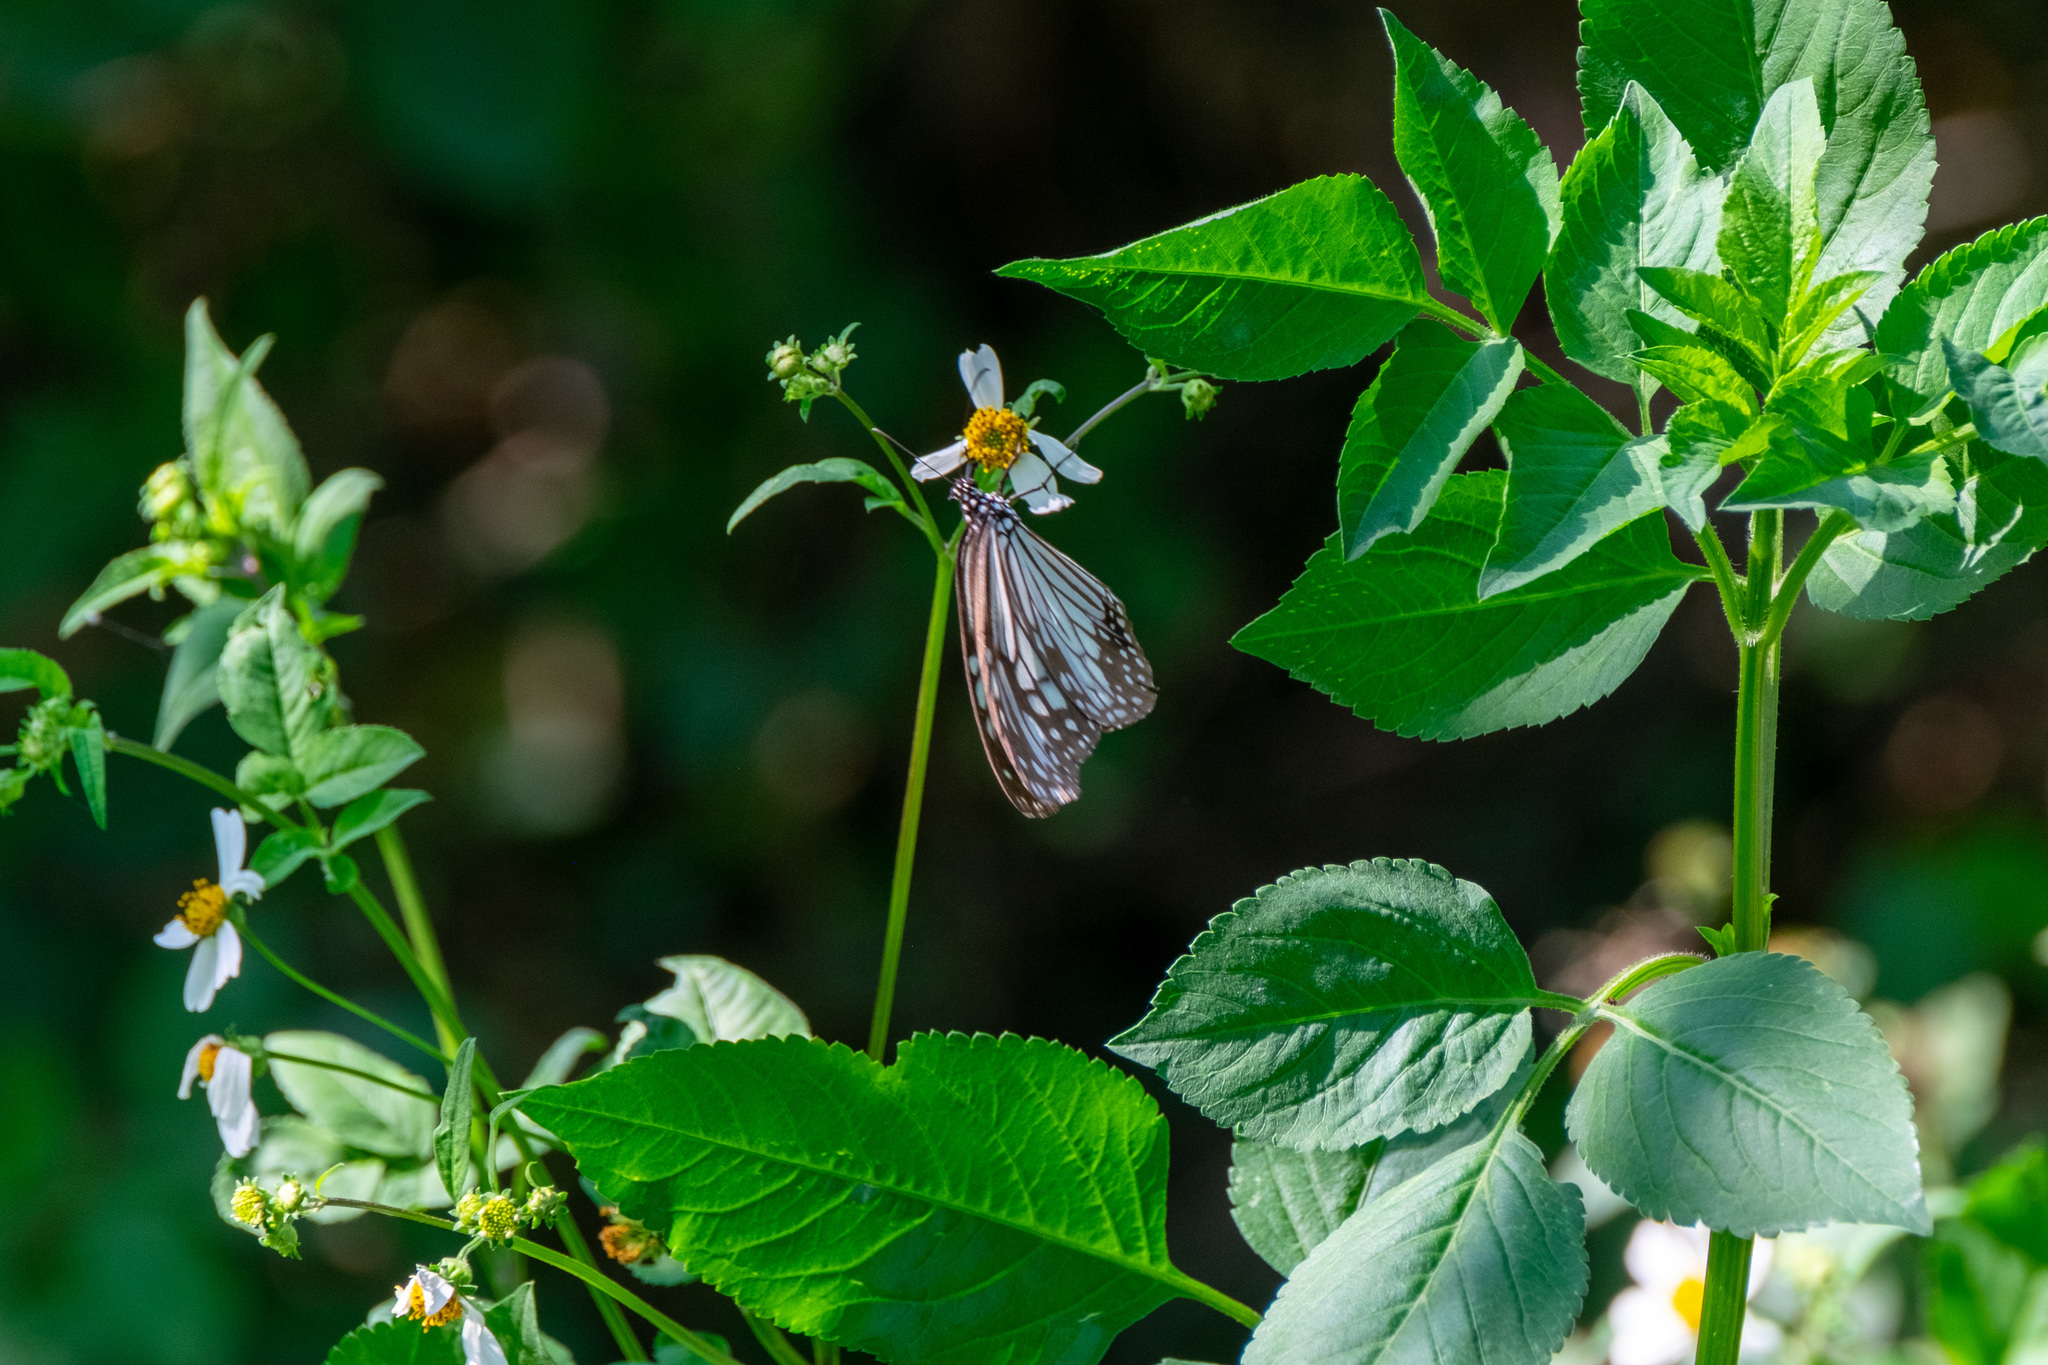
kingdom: Animalia
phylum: Arthropoda
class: Insecta
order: Lepidoptera
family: Nymphalidae
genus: Parantica
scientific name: Parantica aglea
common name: Glassy tiger
